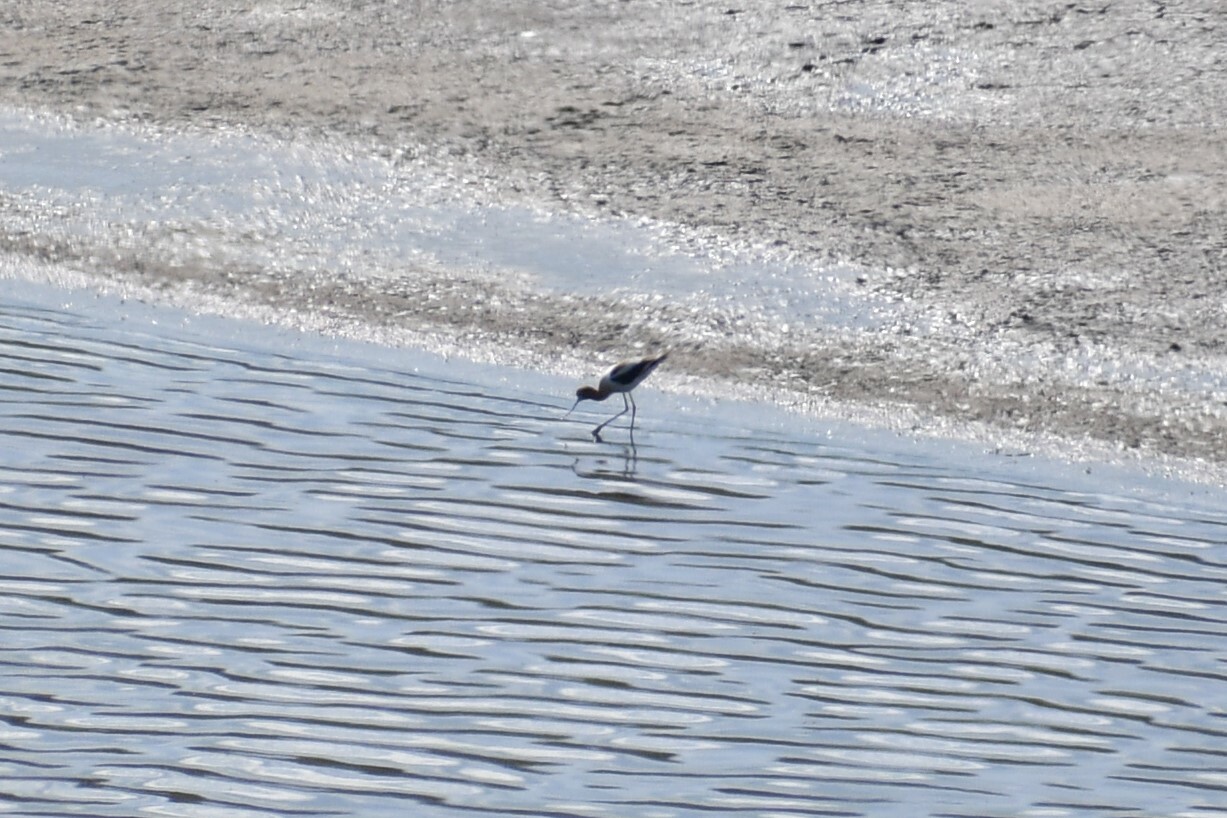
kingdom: Animalia
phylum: Chordata
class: Aves
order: Charadriiformes
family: Recurvirostridae
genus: Recurvirostra
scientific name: Recurvirostra americana
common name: American avocet
